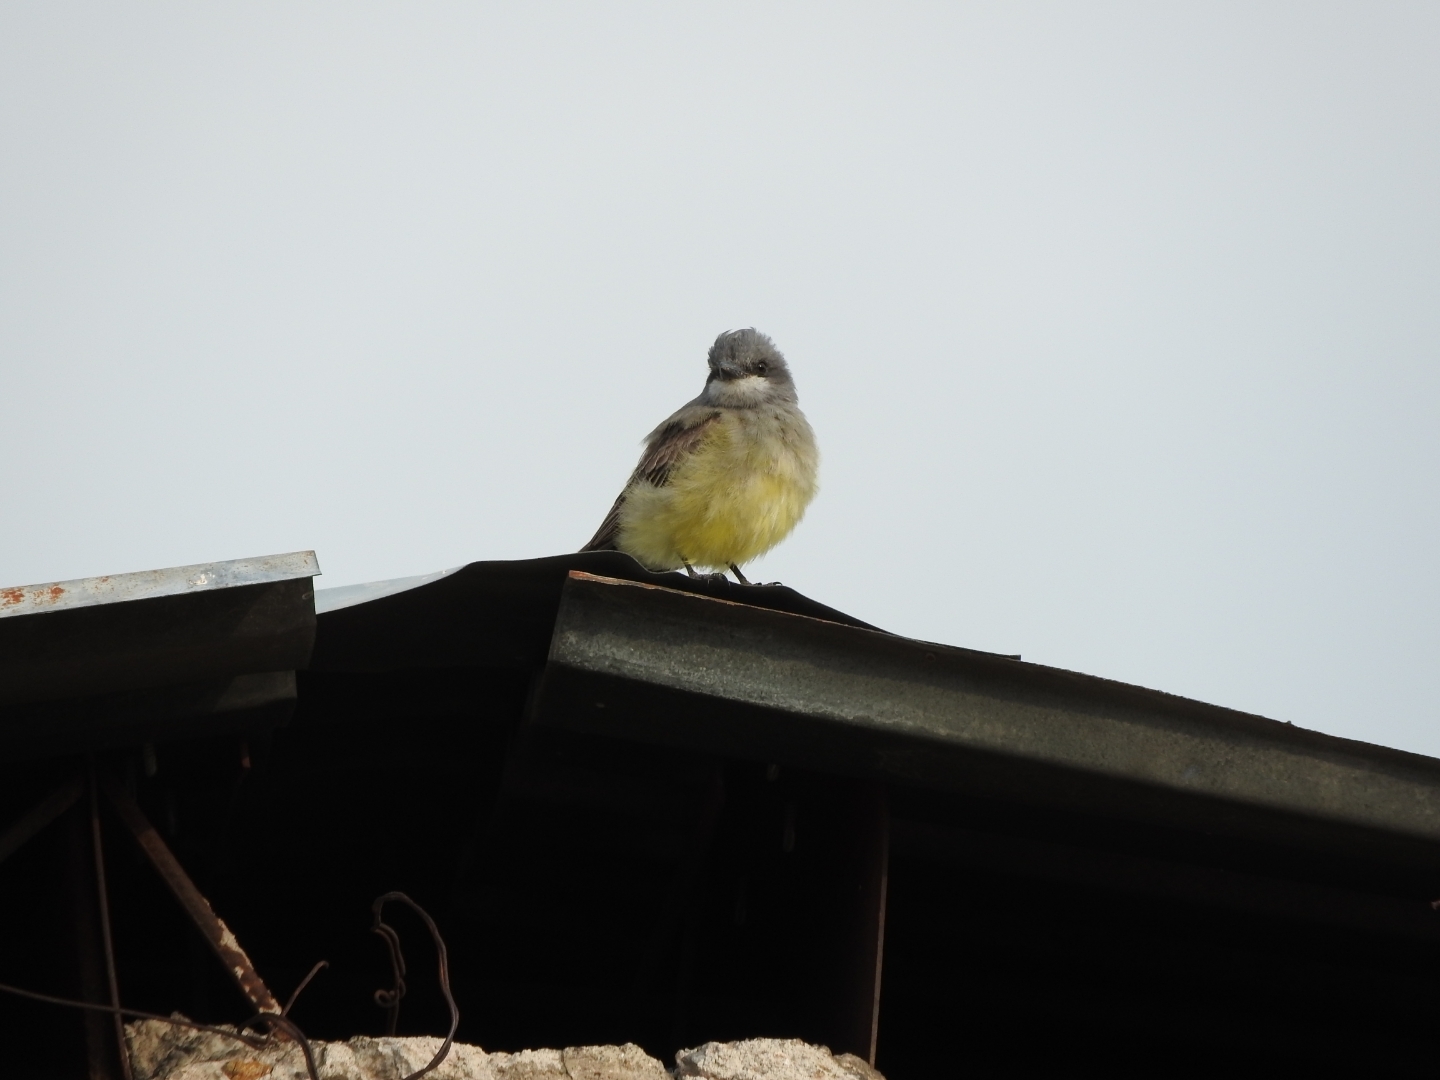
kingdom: Animalia
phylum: Chordata
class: Aves
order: Passeriformes
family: Tyrannidae
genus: Tyrannus
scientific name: Tyrannus vociferans
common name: Cassin's kingbird
